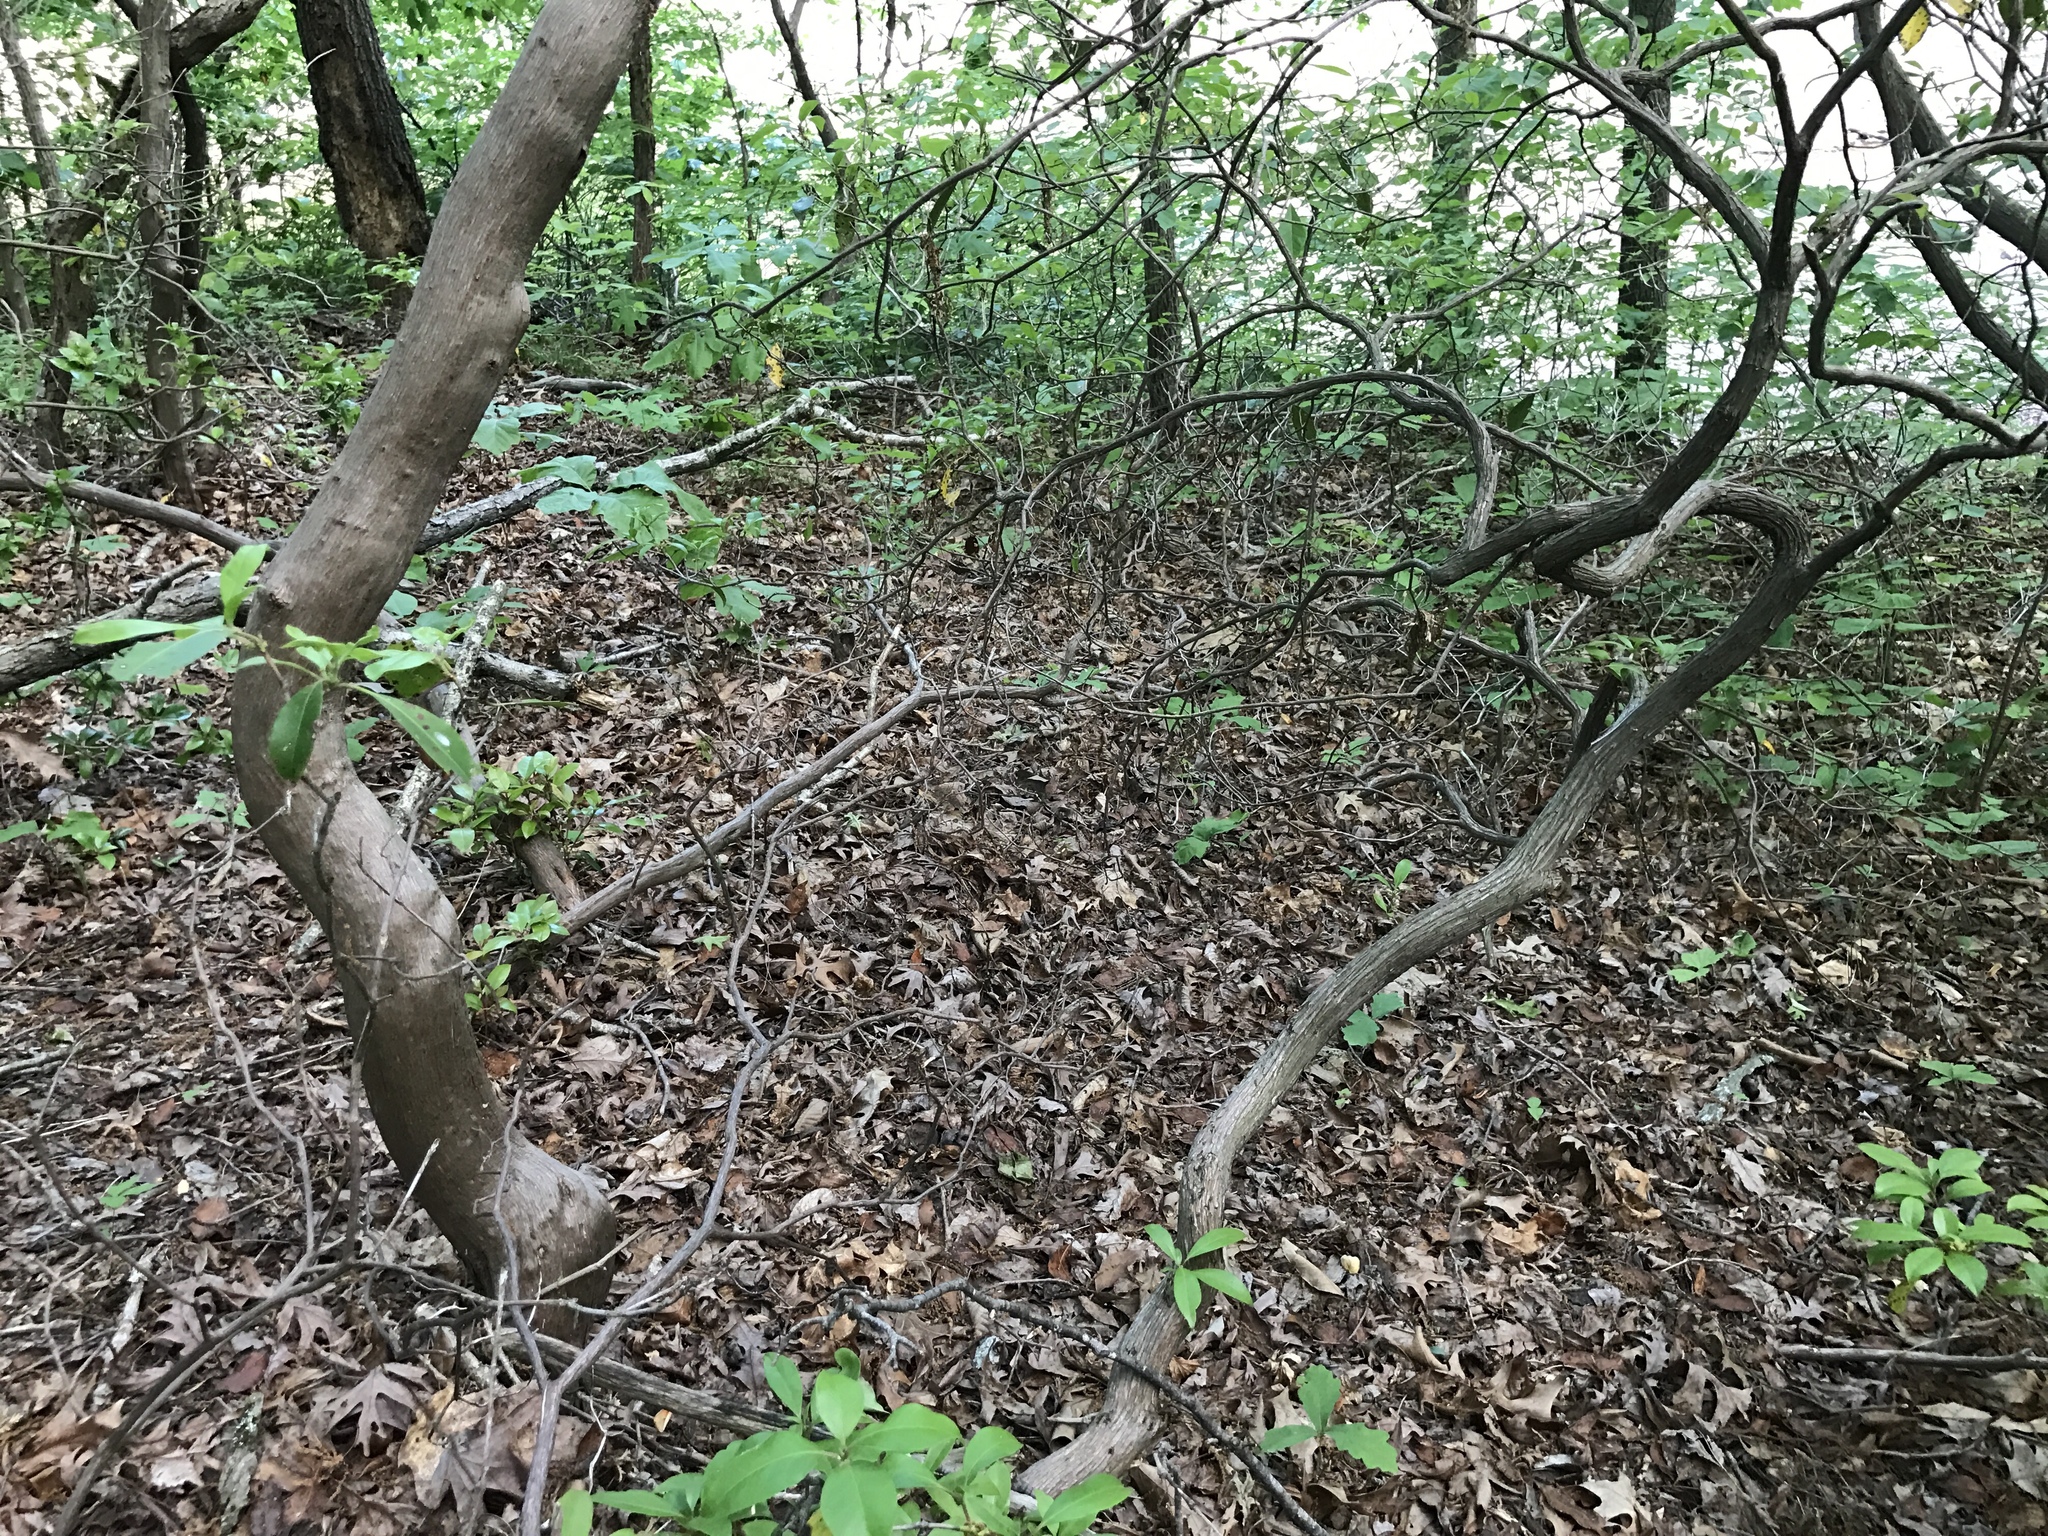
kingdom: Plantae
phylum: Tracheophyta
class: Magnoliopsida
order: Ericales
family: Ericaceae
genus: Kalmia
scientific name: Kalmia latifolia
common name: Mountain-laurel
